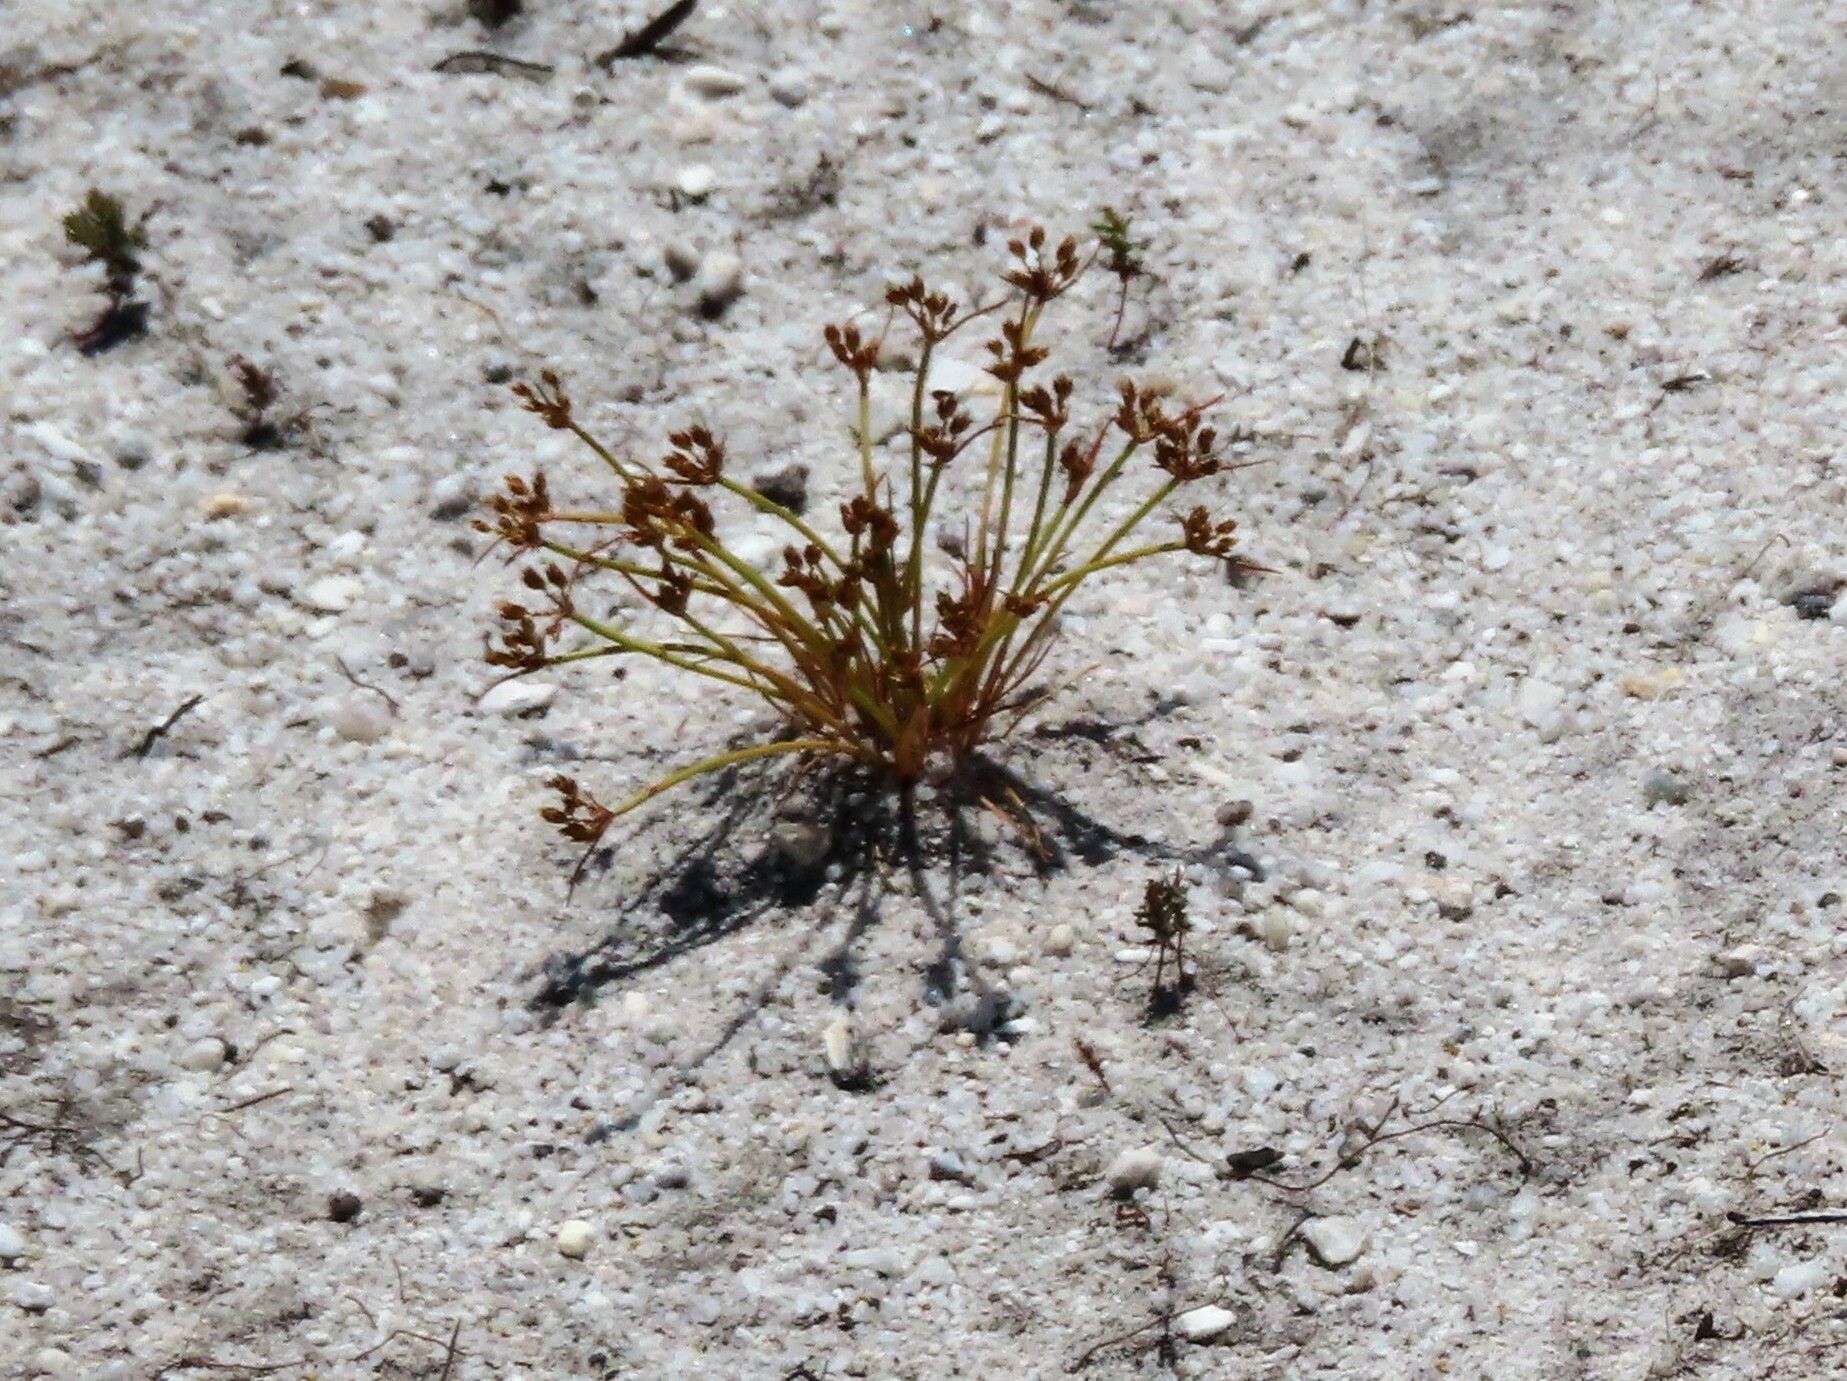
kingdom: Plantae
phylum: Tracheophyta
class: Liliopsida
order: Poales
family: Juncaceae
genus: Juncus
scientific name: Juncus bufonius
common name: Toad rush
